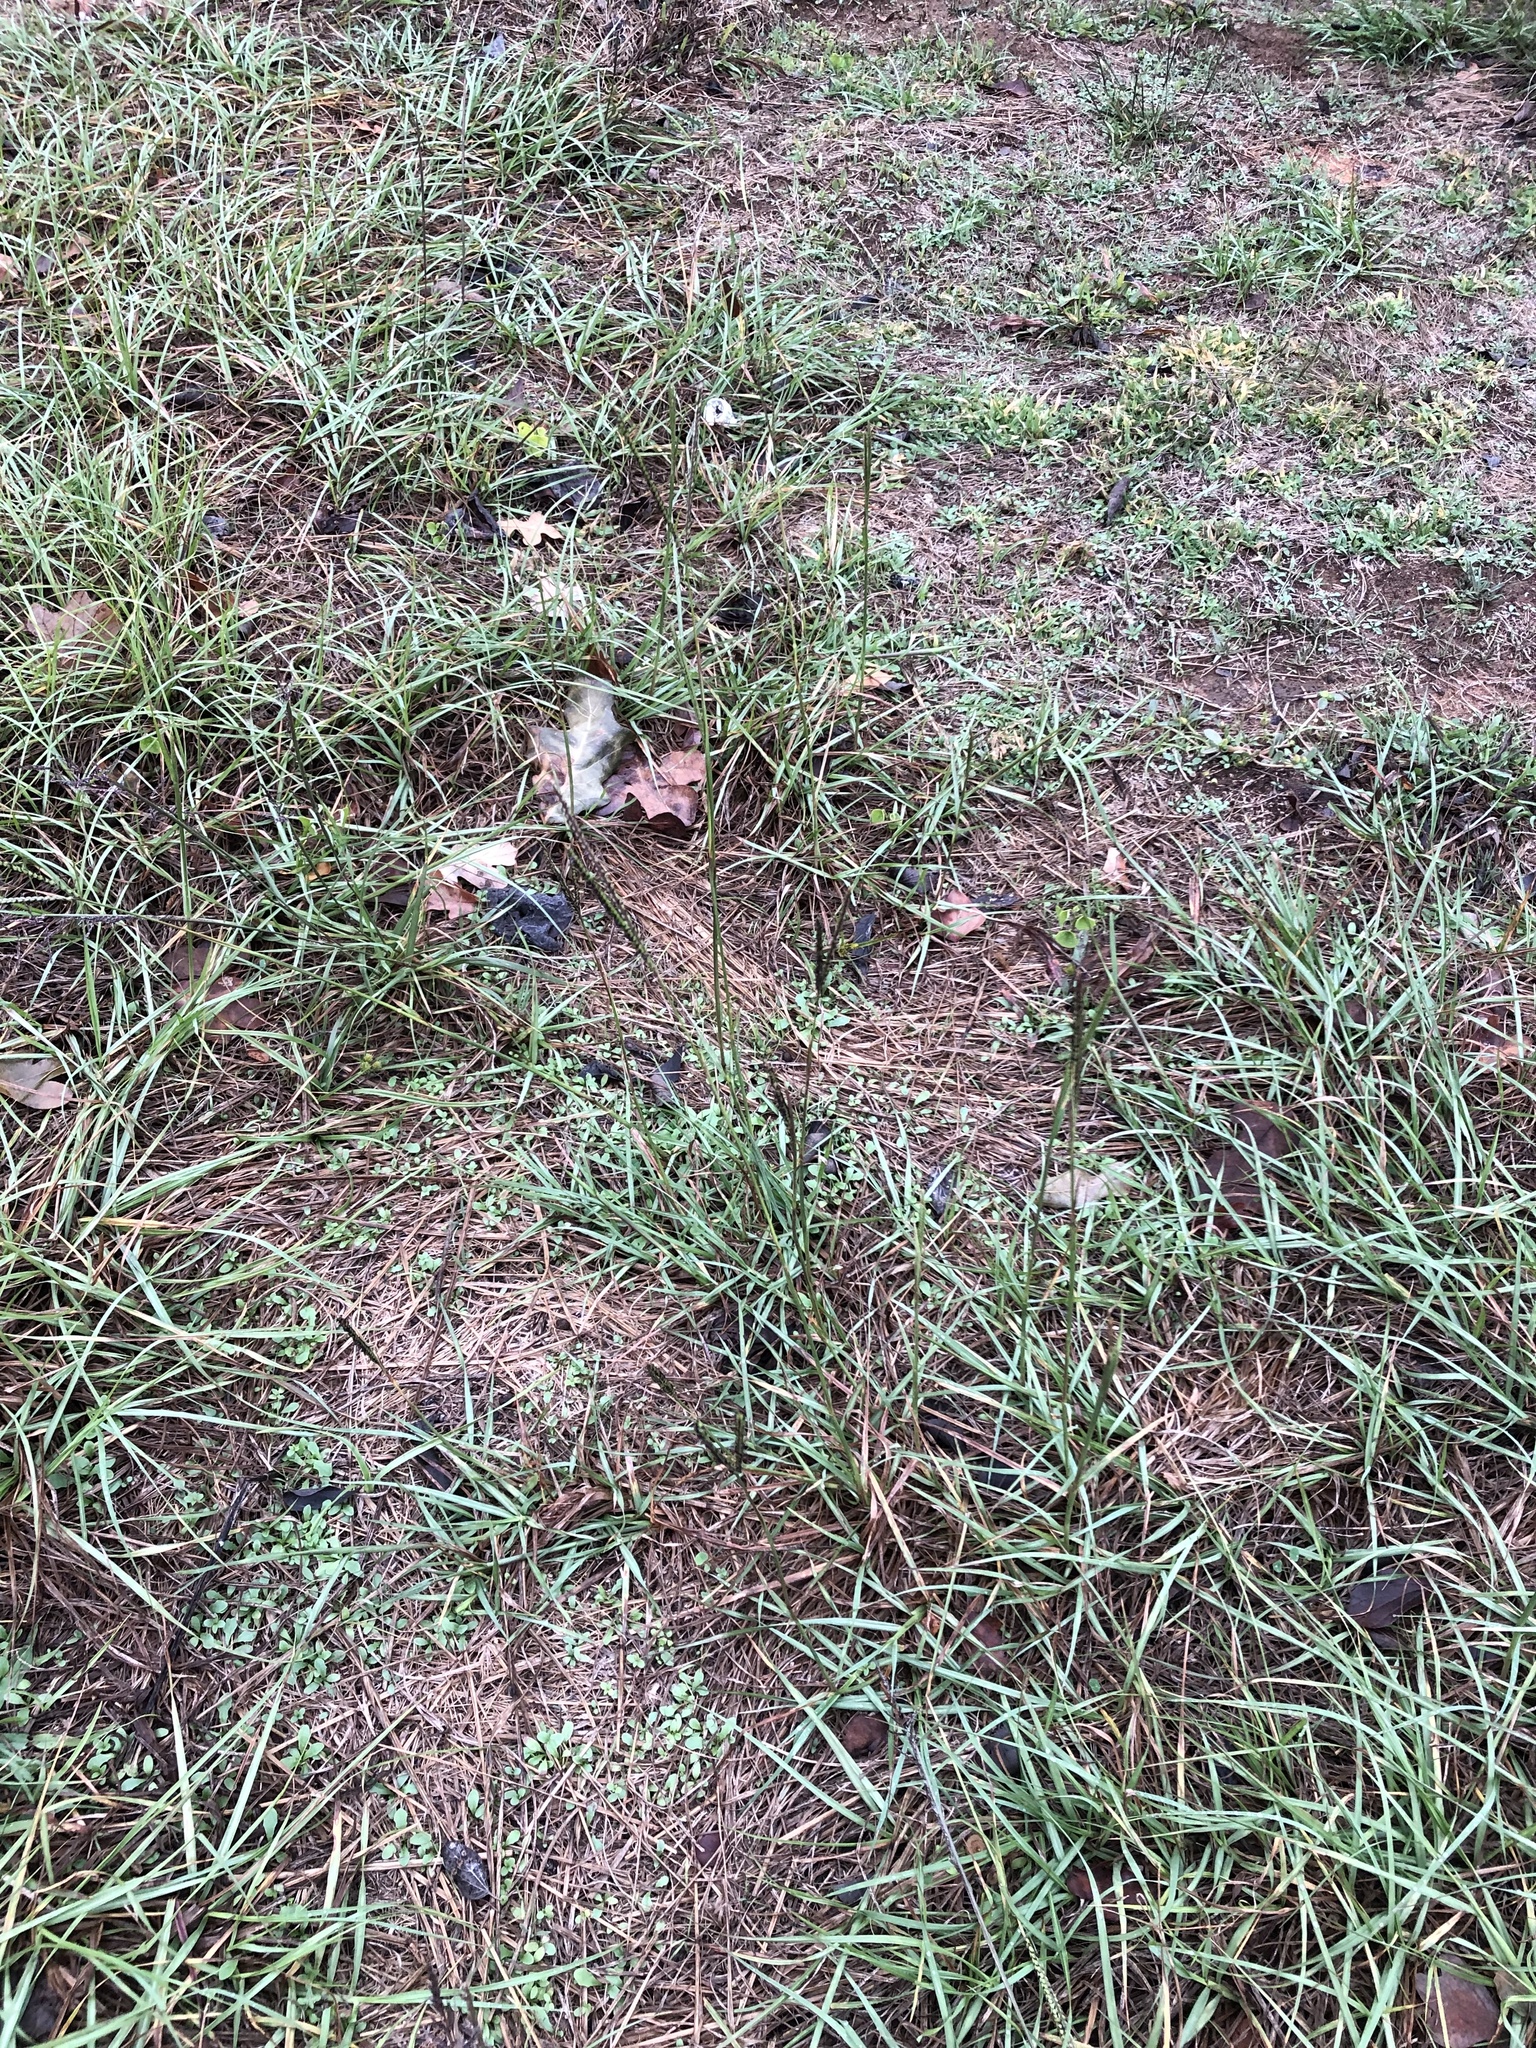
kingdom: Plantae
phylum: Tracheophyta
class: Liliopsida
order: Poales
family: Poaceae
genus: Paspalum
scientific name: Paspalum notatum
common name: Bahiagrass
